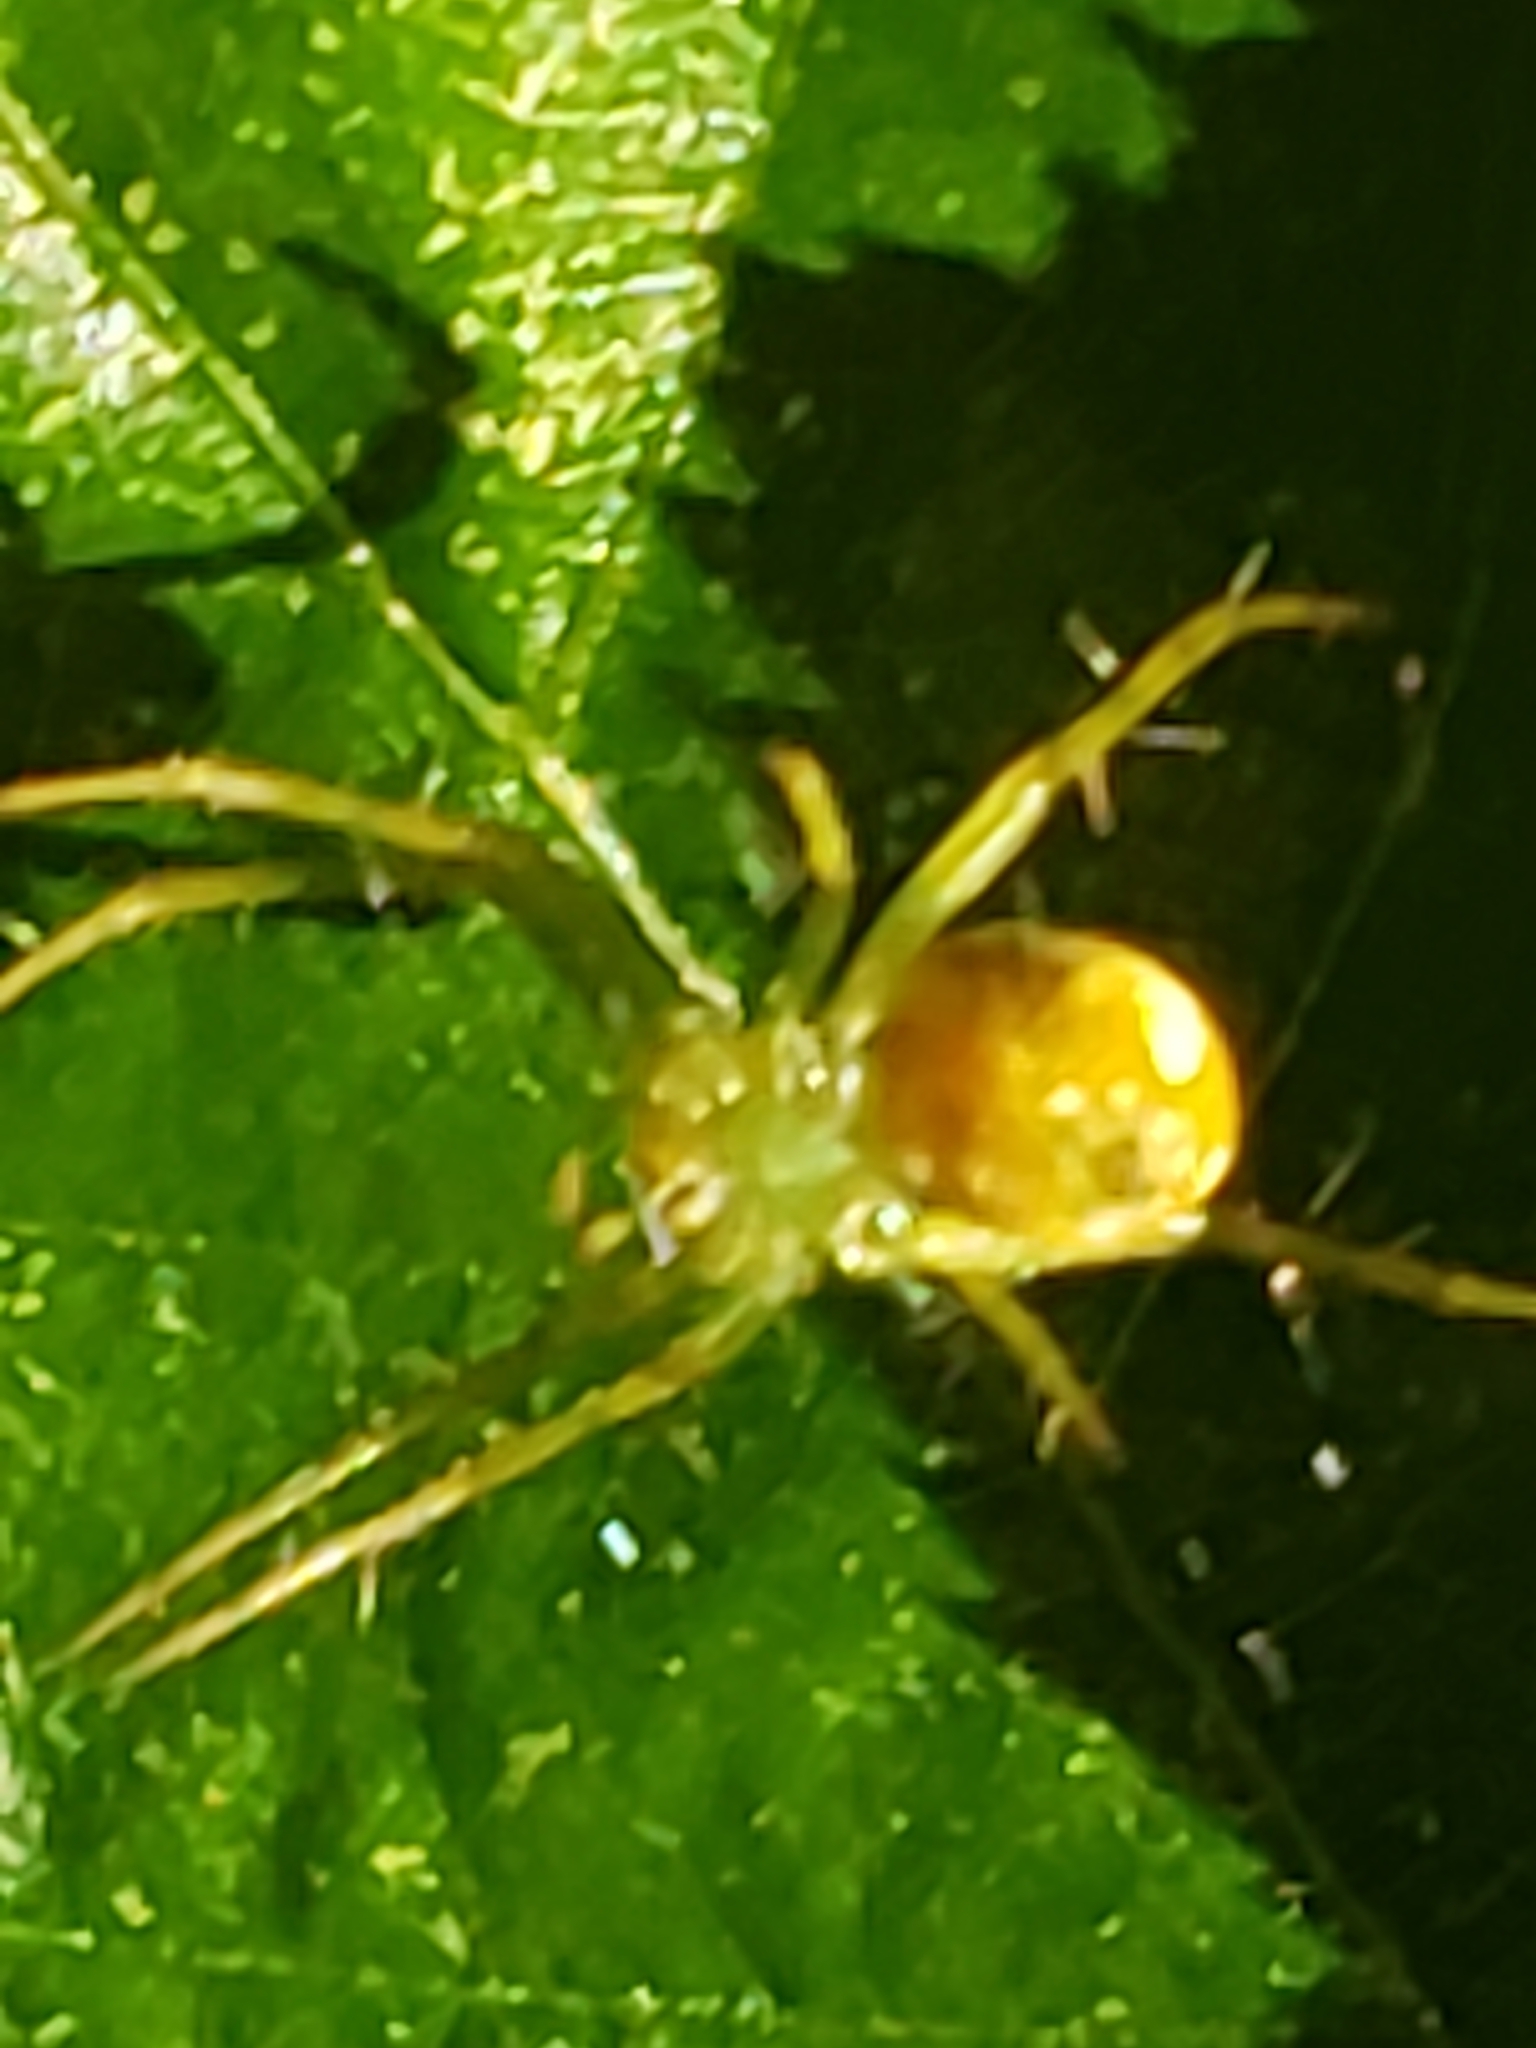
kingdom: Animalia
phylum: Arthropoda
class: Arachnida
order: Araneae
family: Araneidae
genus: Araniella
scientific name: Araniella displicata
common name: Sixspotted orb weaver
